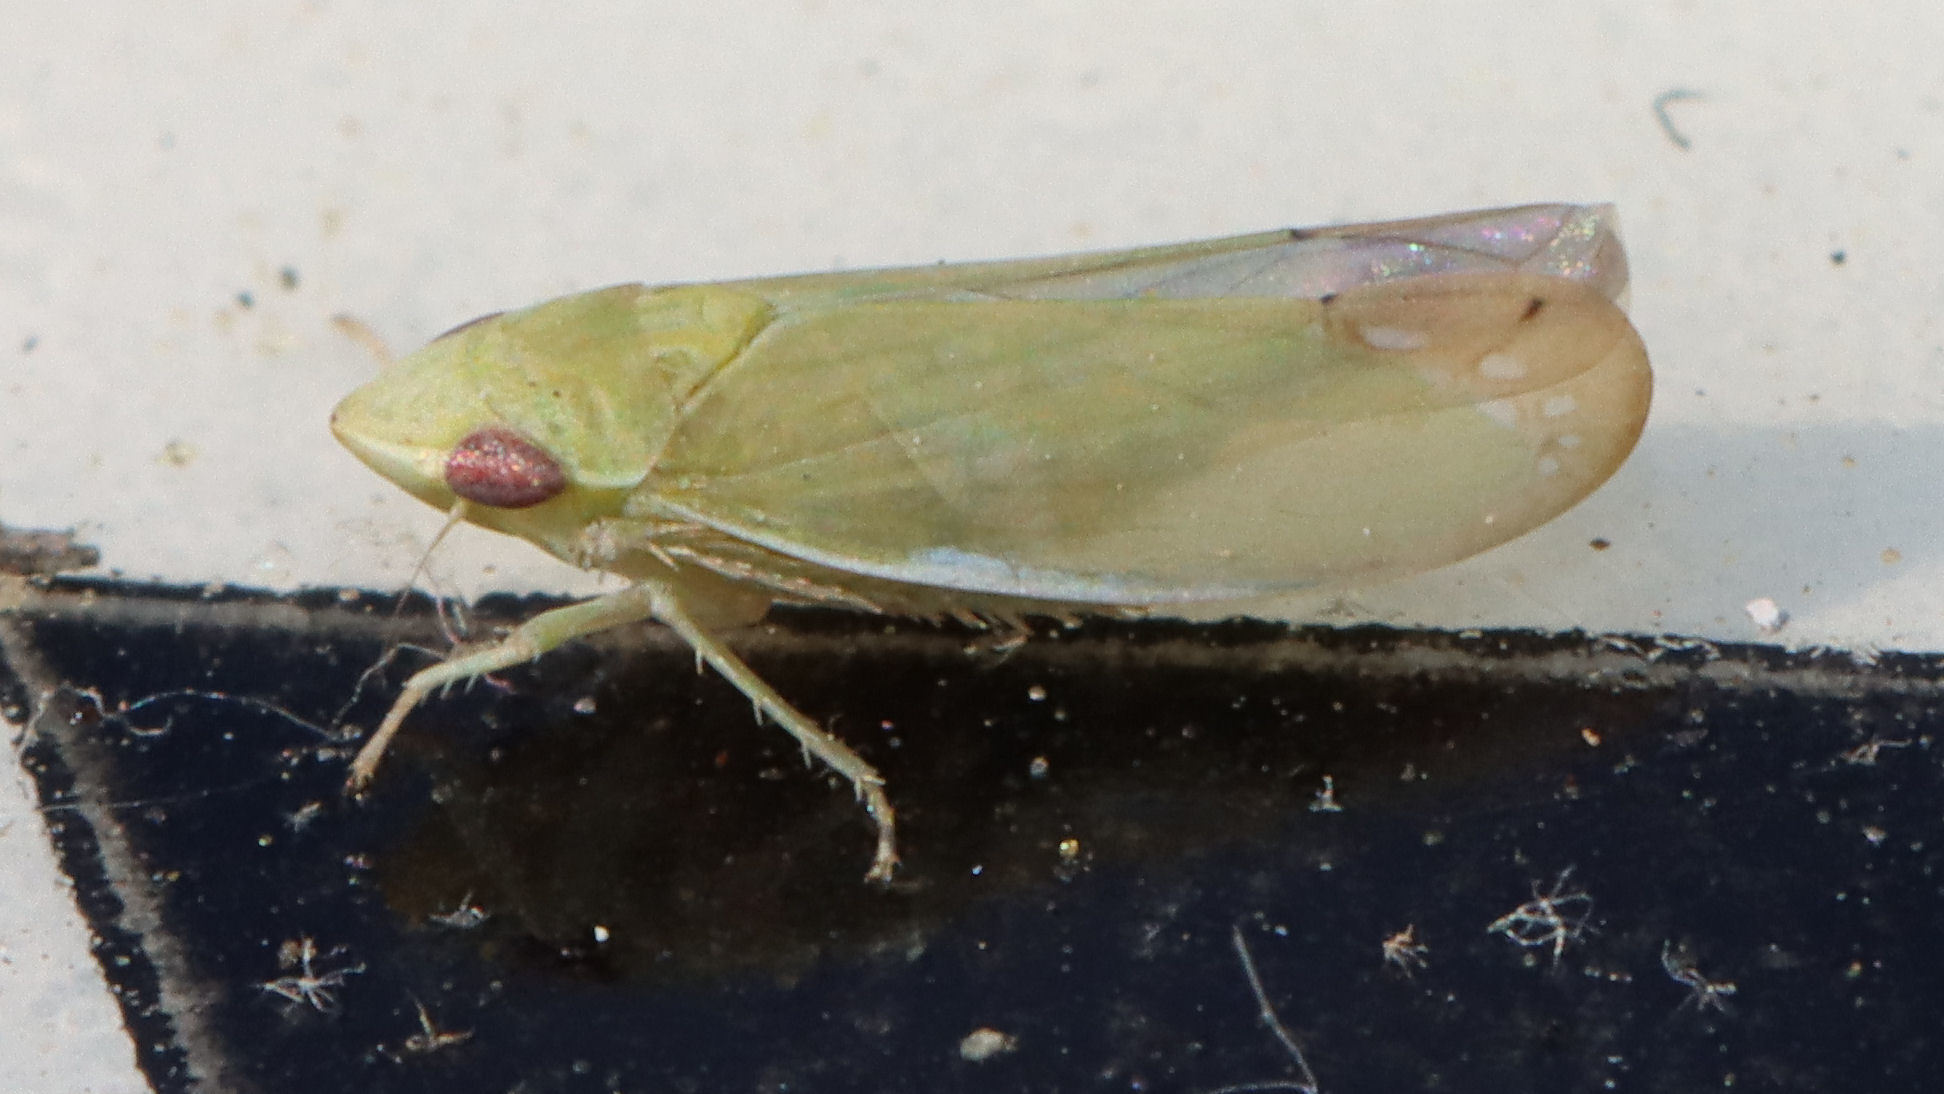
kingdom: Animalia
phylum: Arthropoda
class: Insecta
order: Hemiptera
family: Cicadellidae
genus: Memnonia
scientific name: Memnonia flavida
